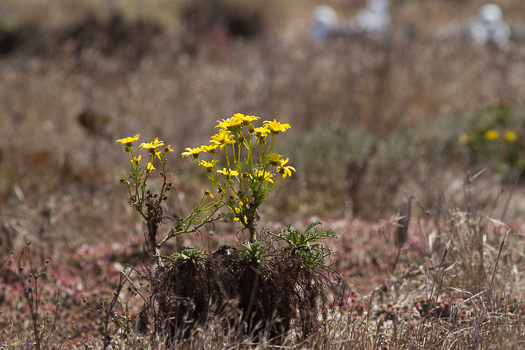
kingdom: Plantae
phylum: Tracheophyta
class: Magnoliopsida
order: Asterales
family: Asteraceae
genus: Coreopsis
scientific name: Coreopsis gigantea
